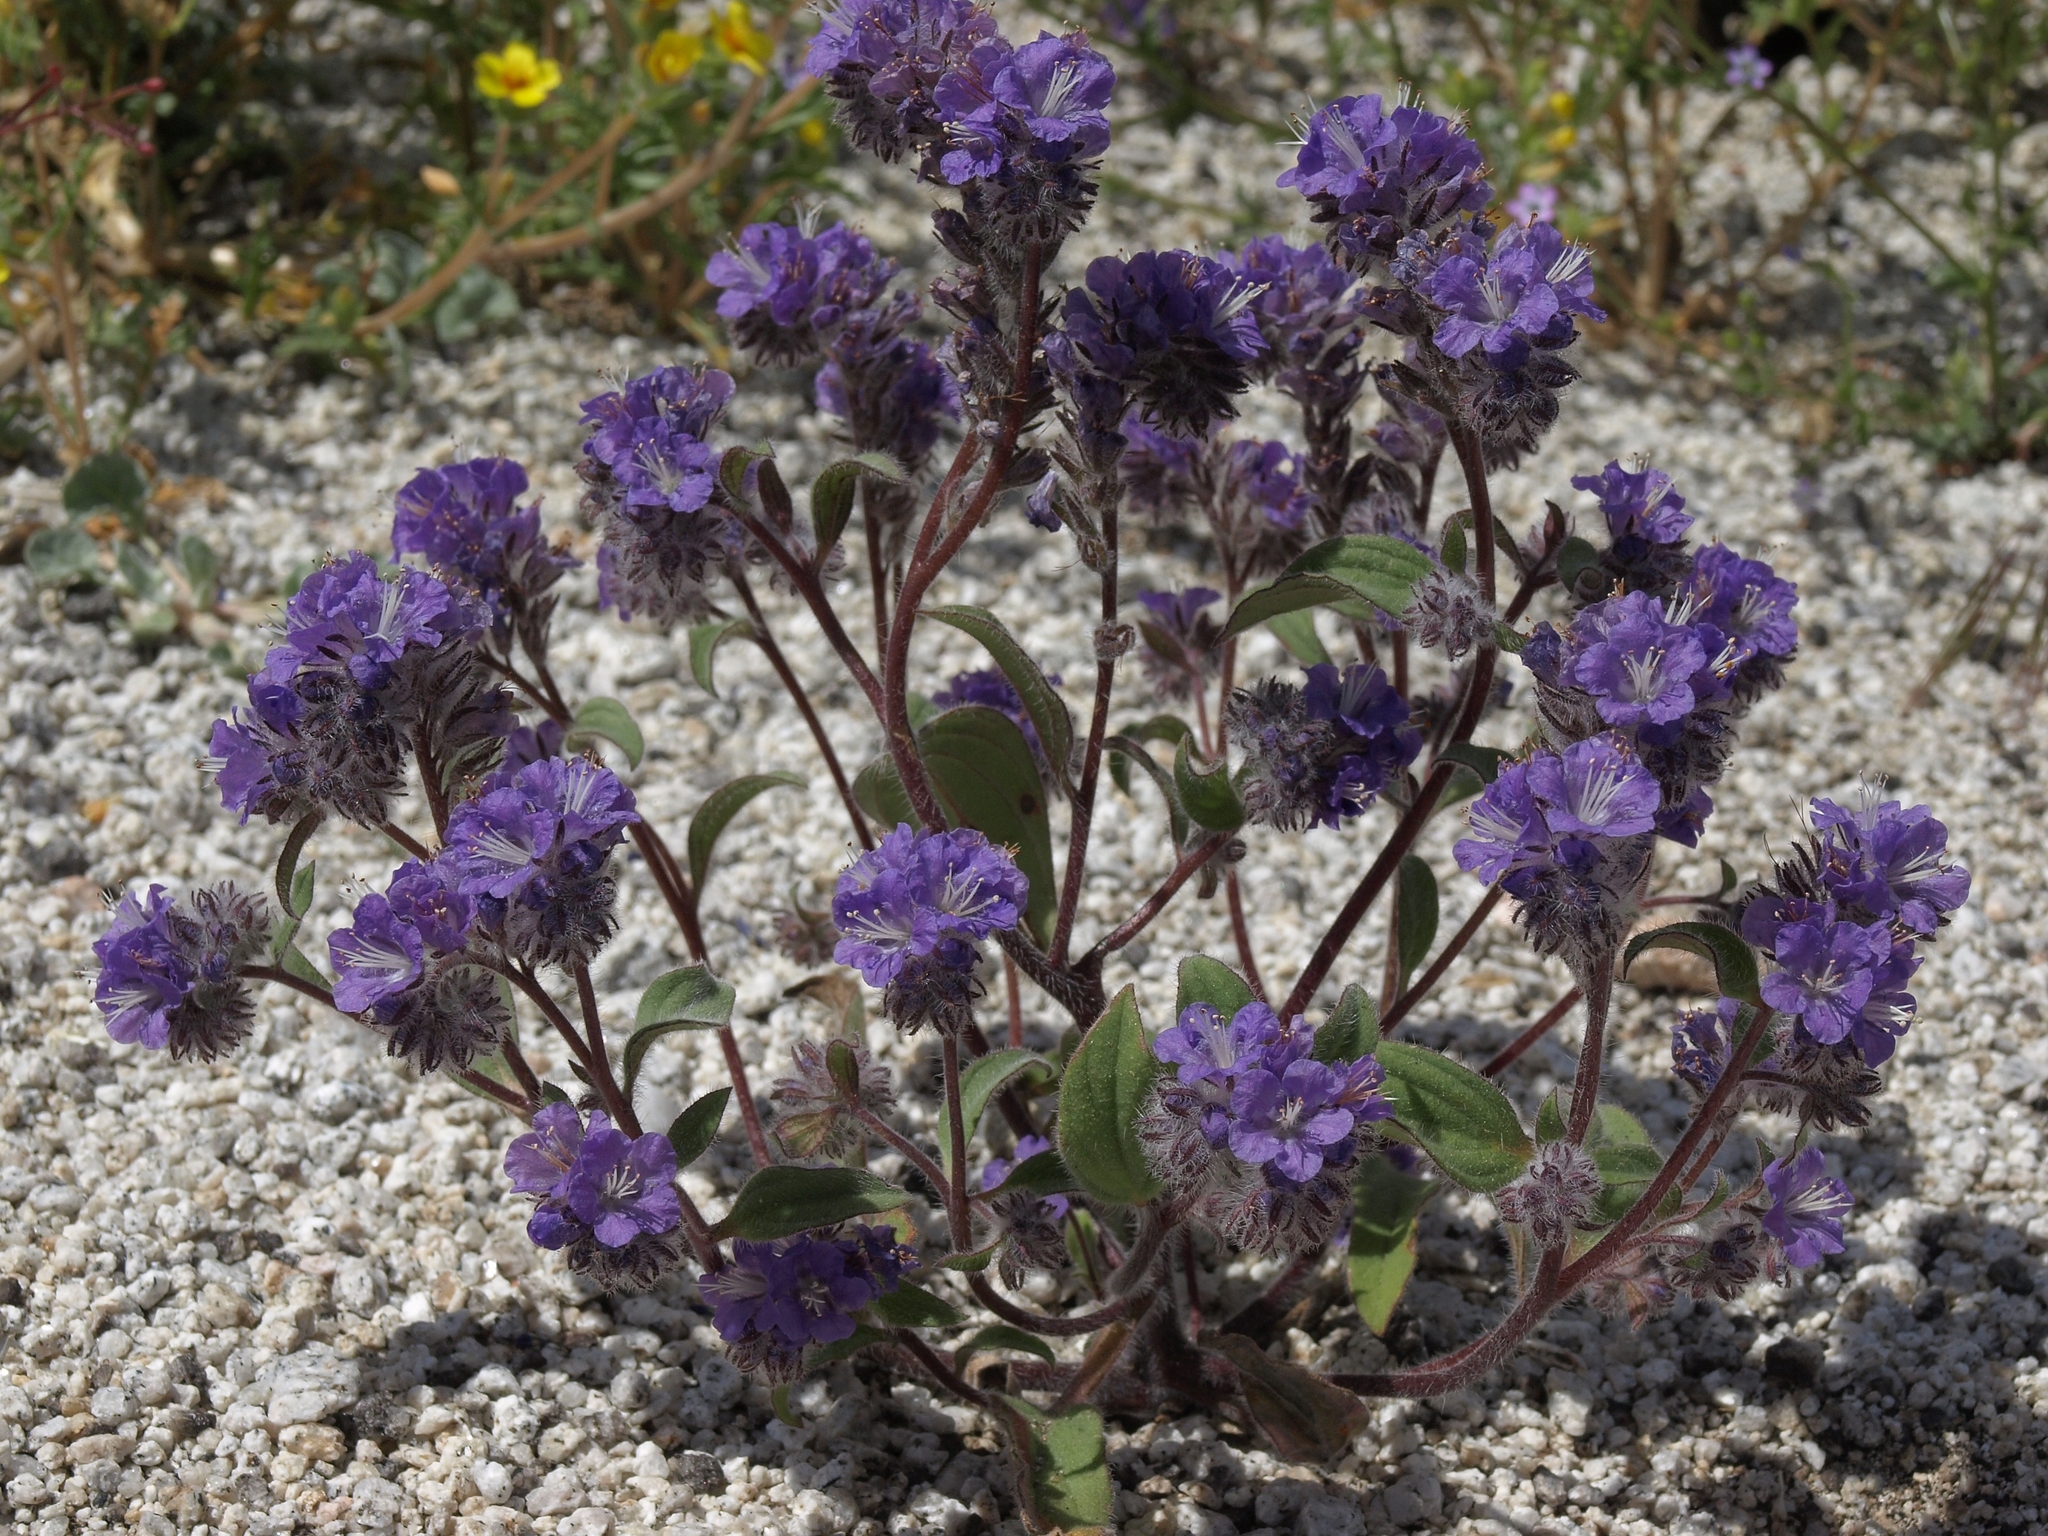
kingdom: Plantae
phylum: Tracheophyta
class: Magnoliopsida
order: Boraginales
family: Hydrophyllaceae
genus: Phacelia
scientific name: Phacelia humilis
